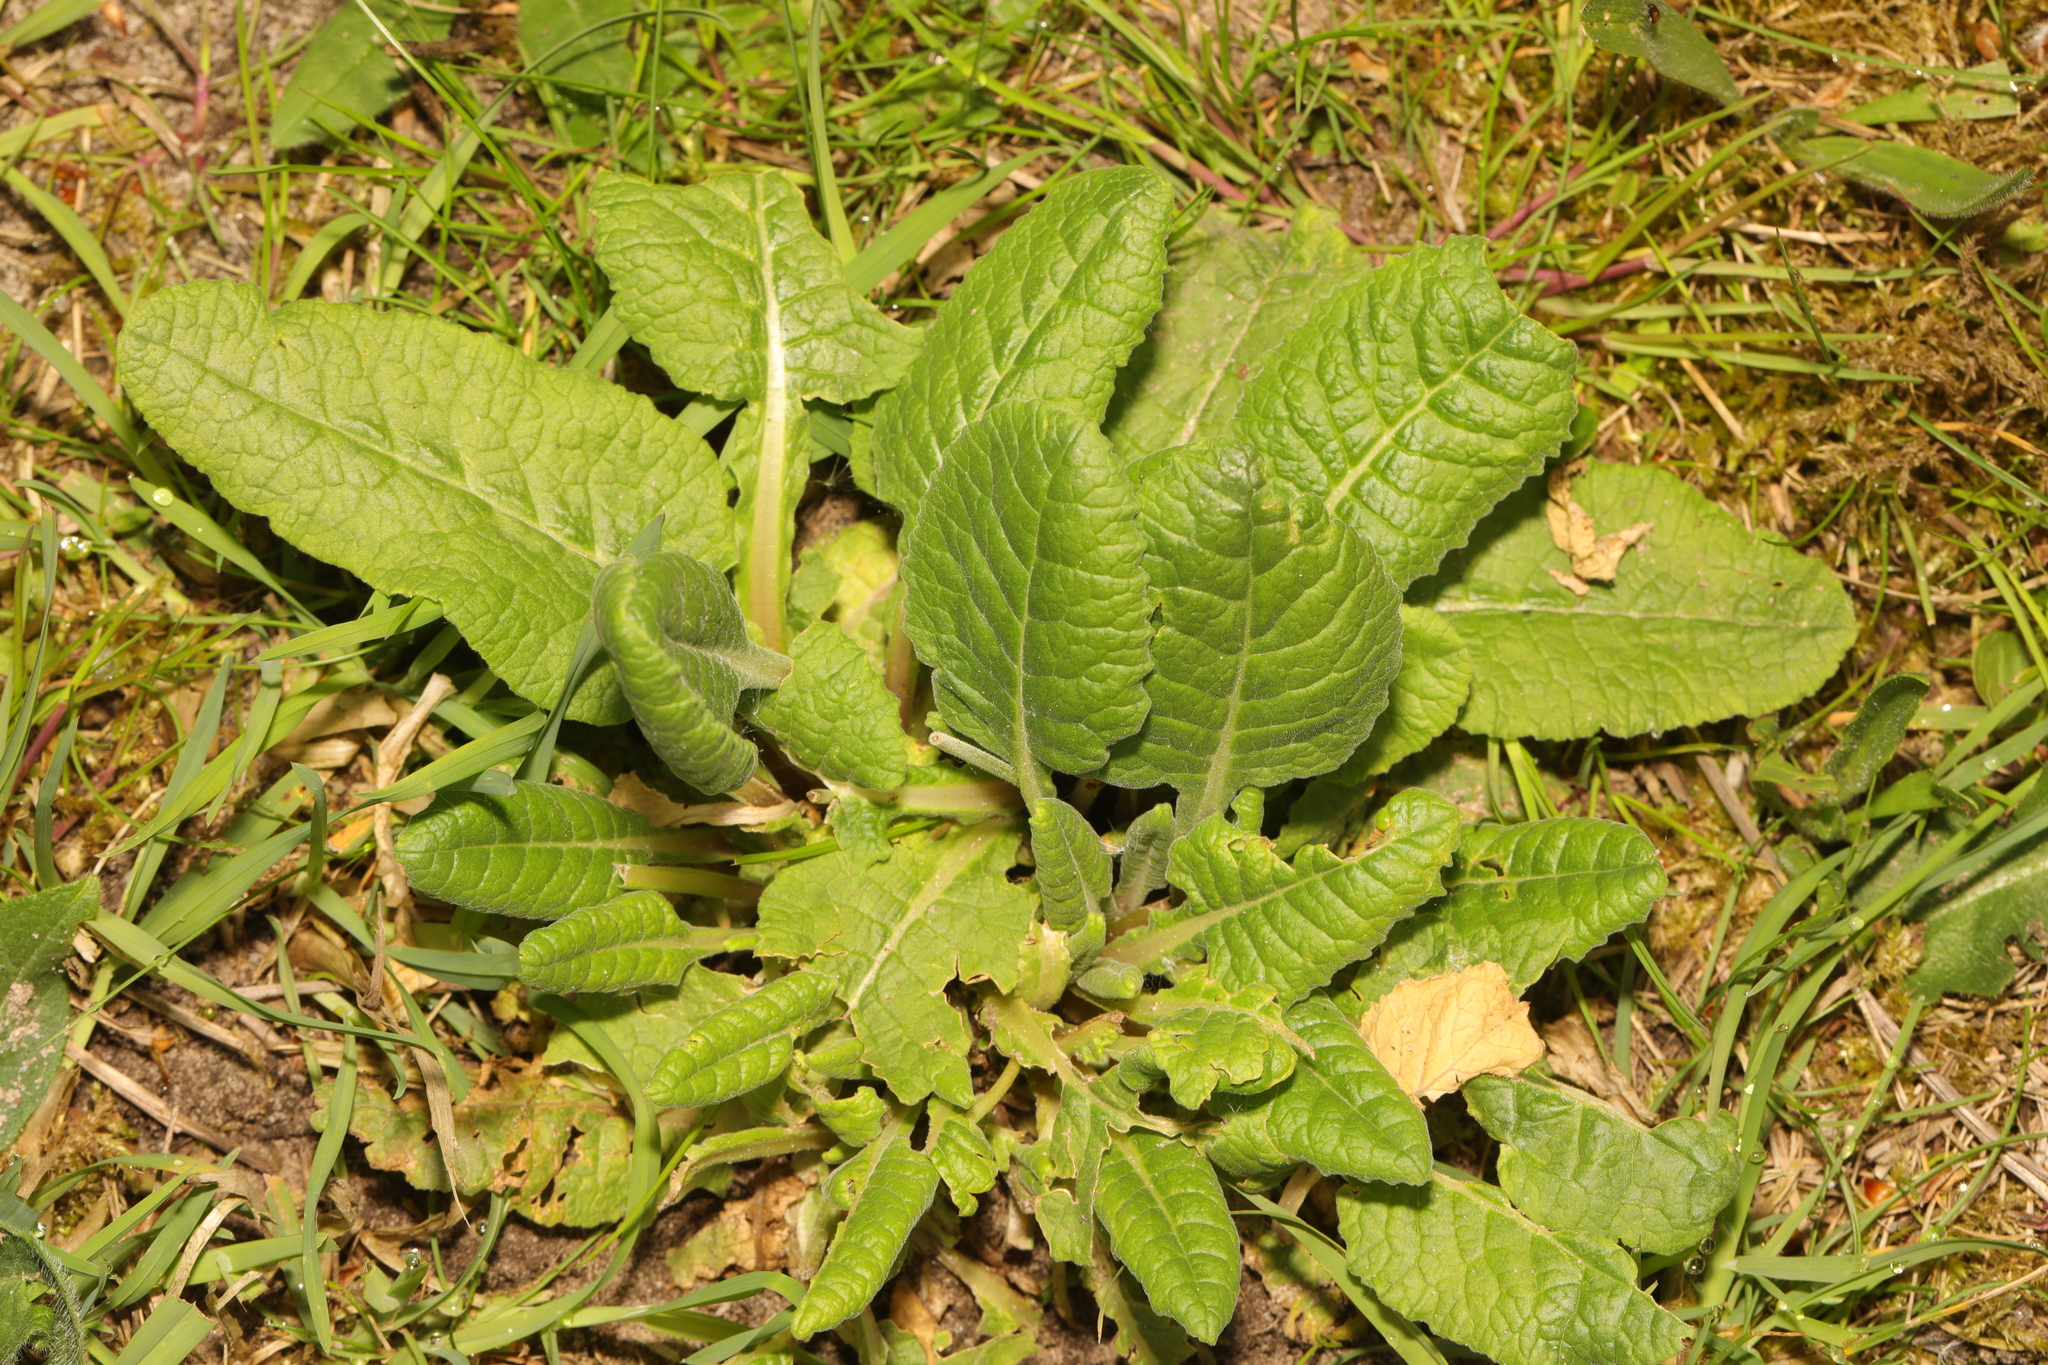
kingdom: Plantae
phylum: Tracheophyta
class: Magnoliopsida
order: Ericales
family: Primulaceae
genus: Primula
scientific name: Primula veris
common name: Cowslip
